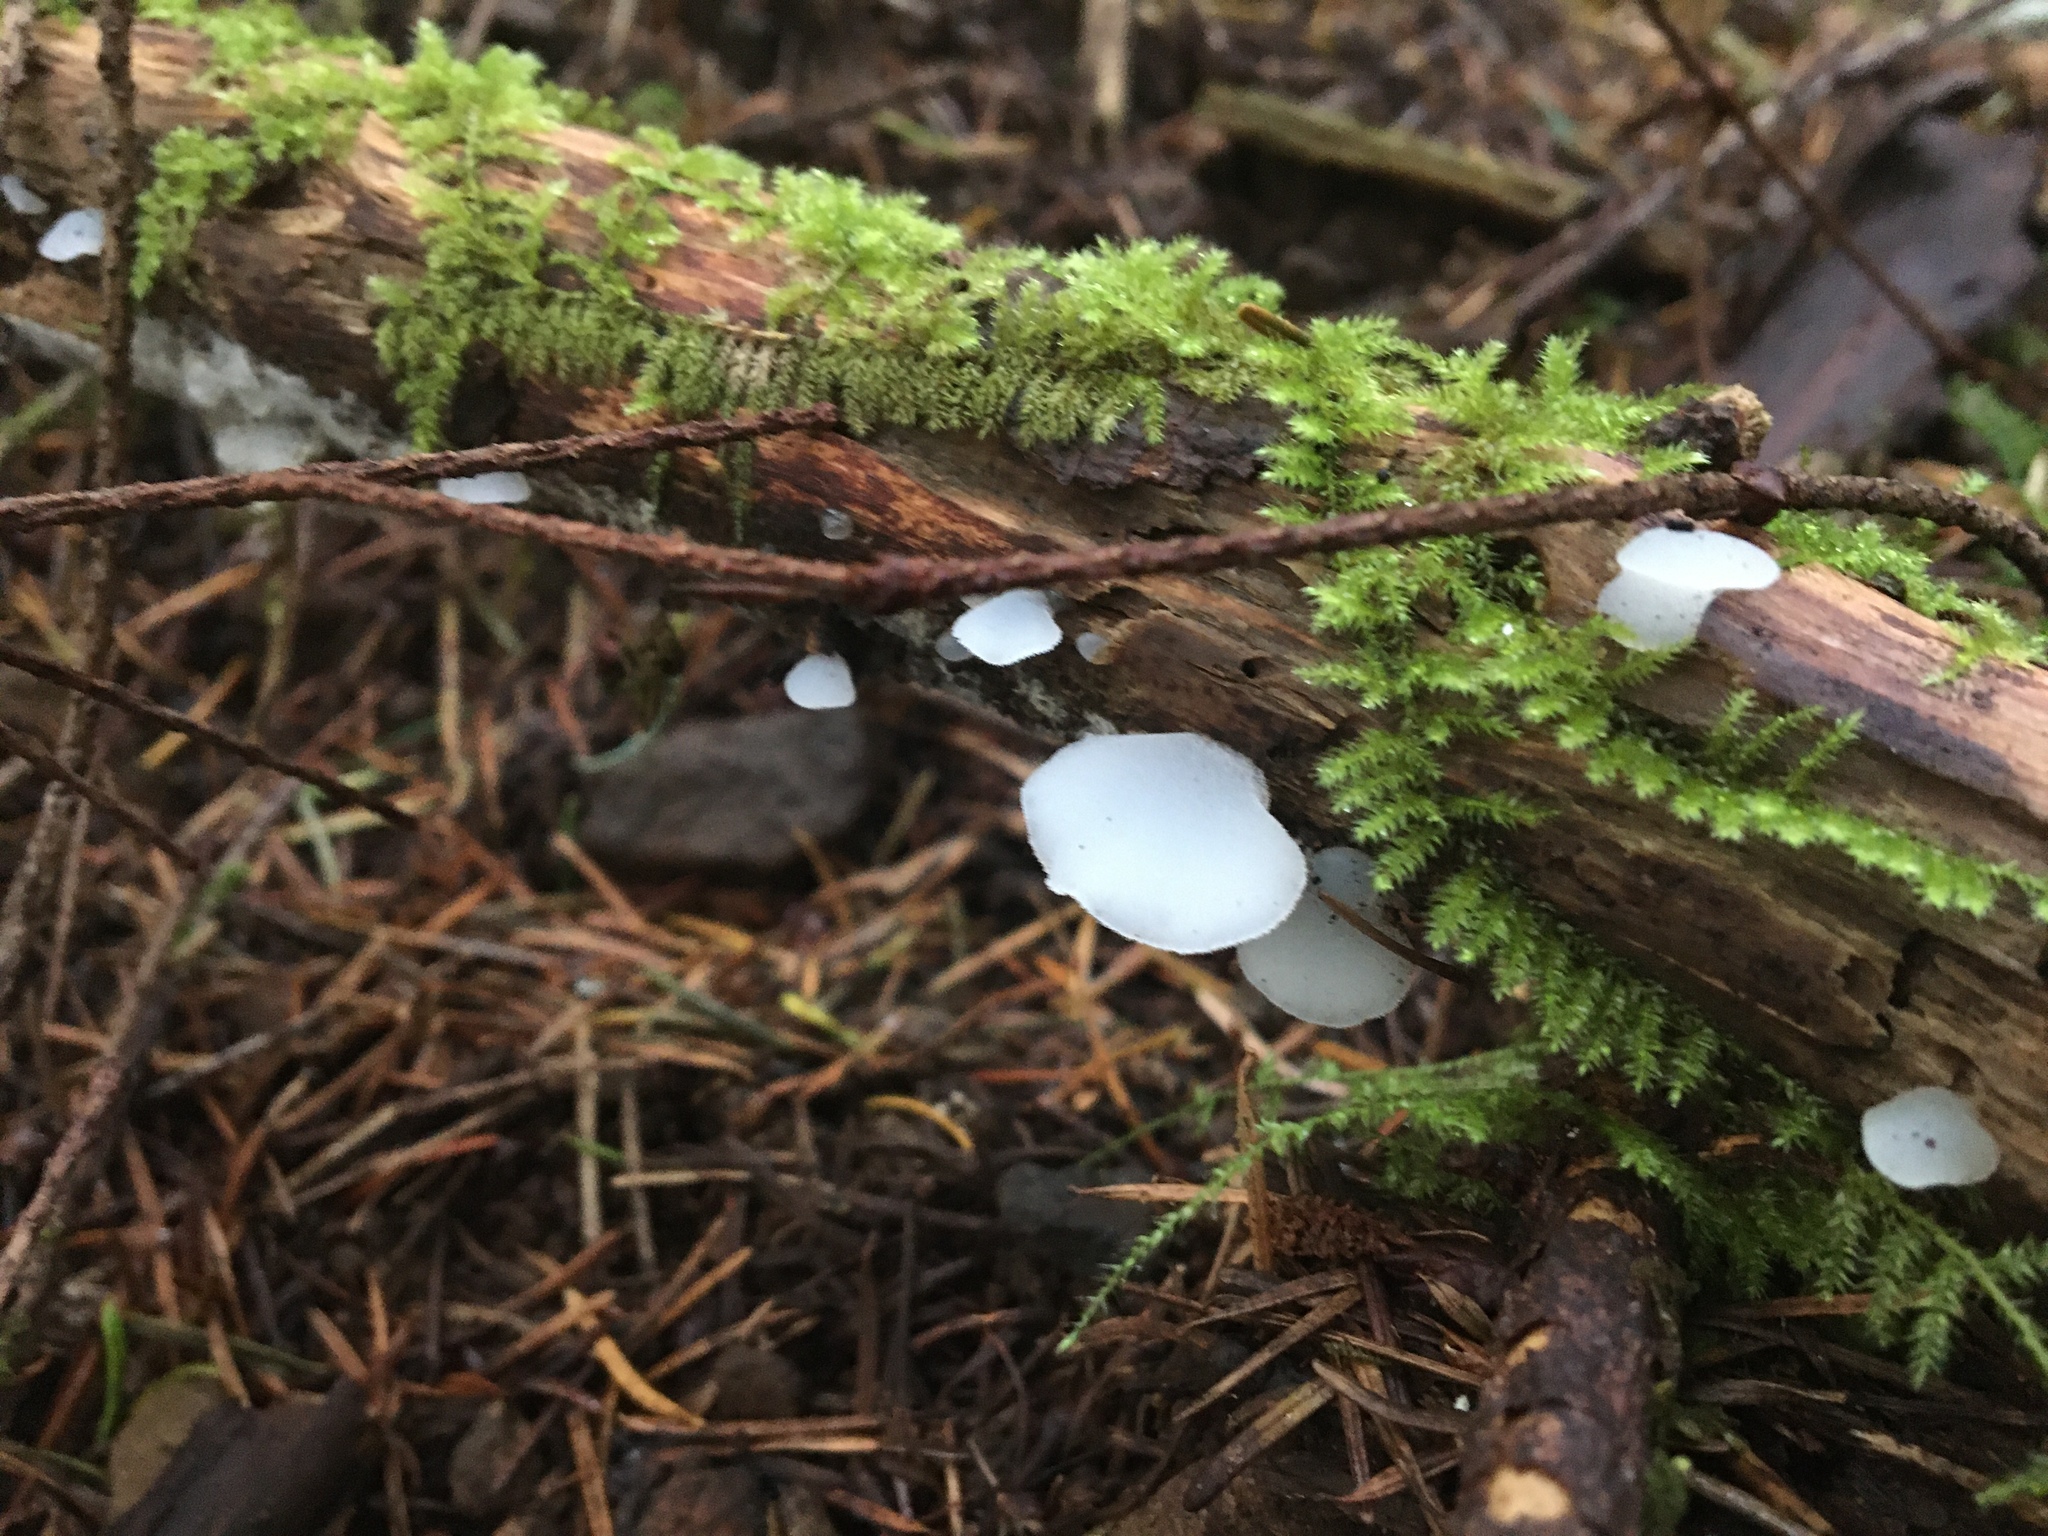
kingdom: Fungi
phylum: Basidiomycota
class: Agaricomycetes
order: Auriculariales
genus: Pseudohydnum
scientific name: Pseudohydnum gelatinosum
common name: Jelly tongue
